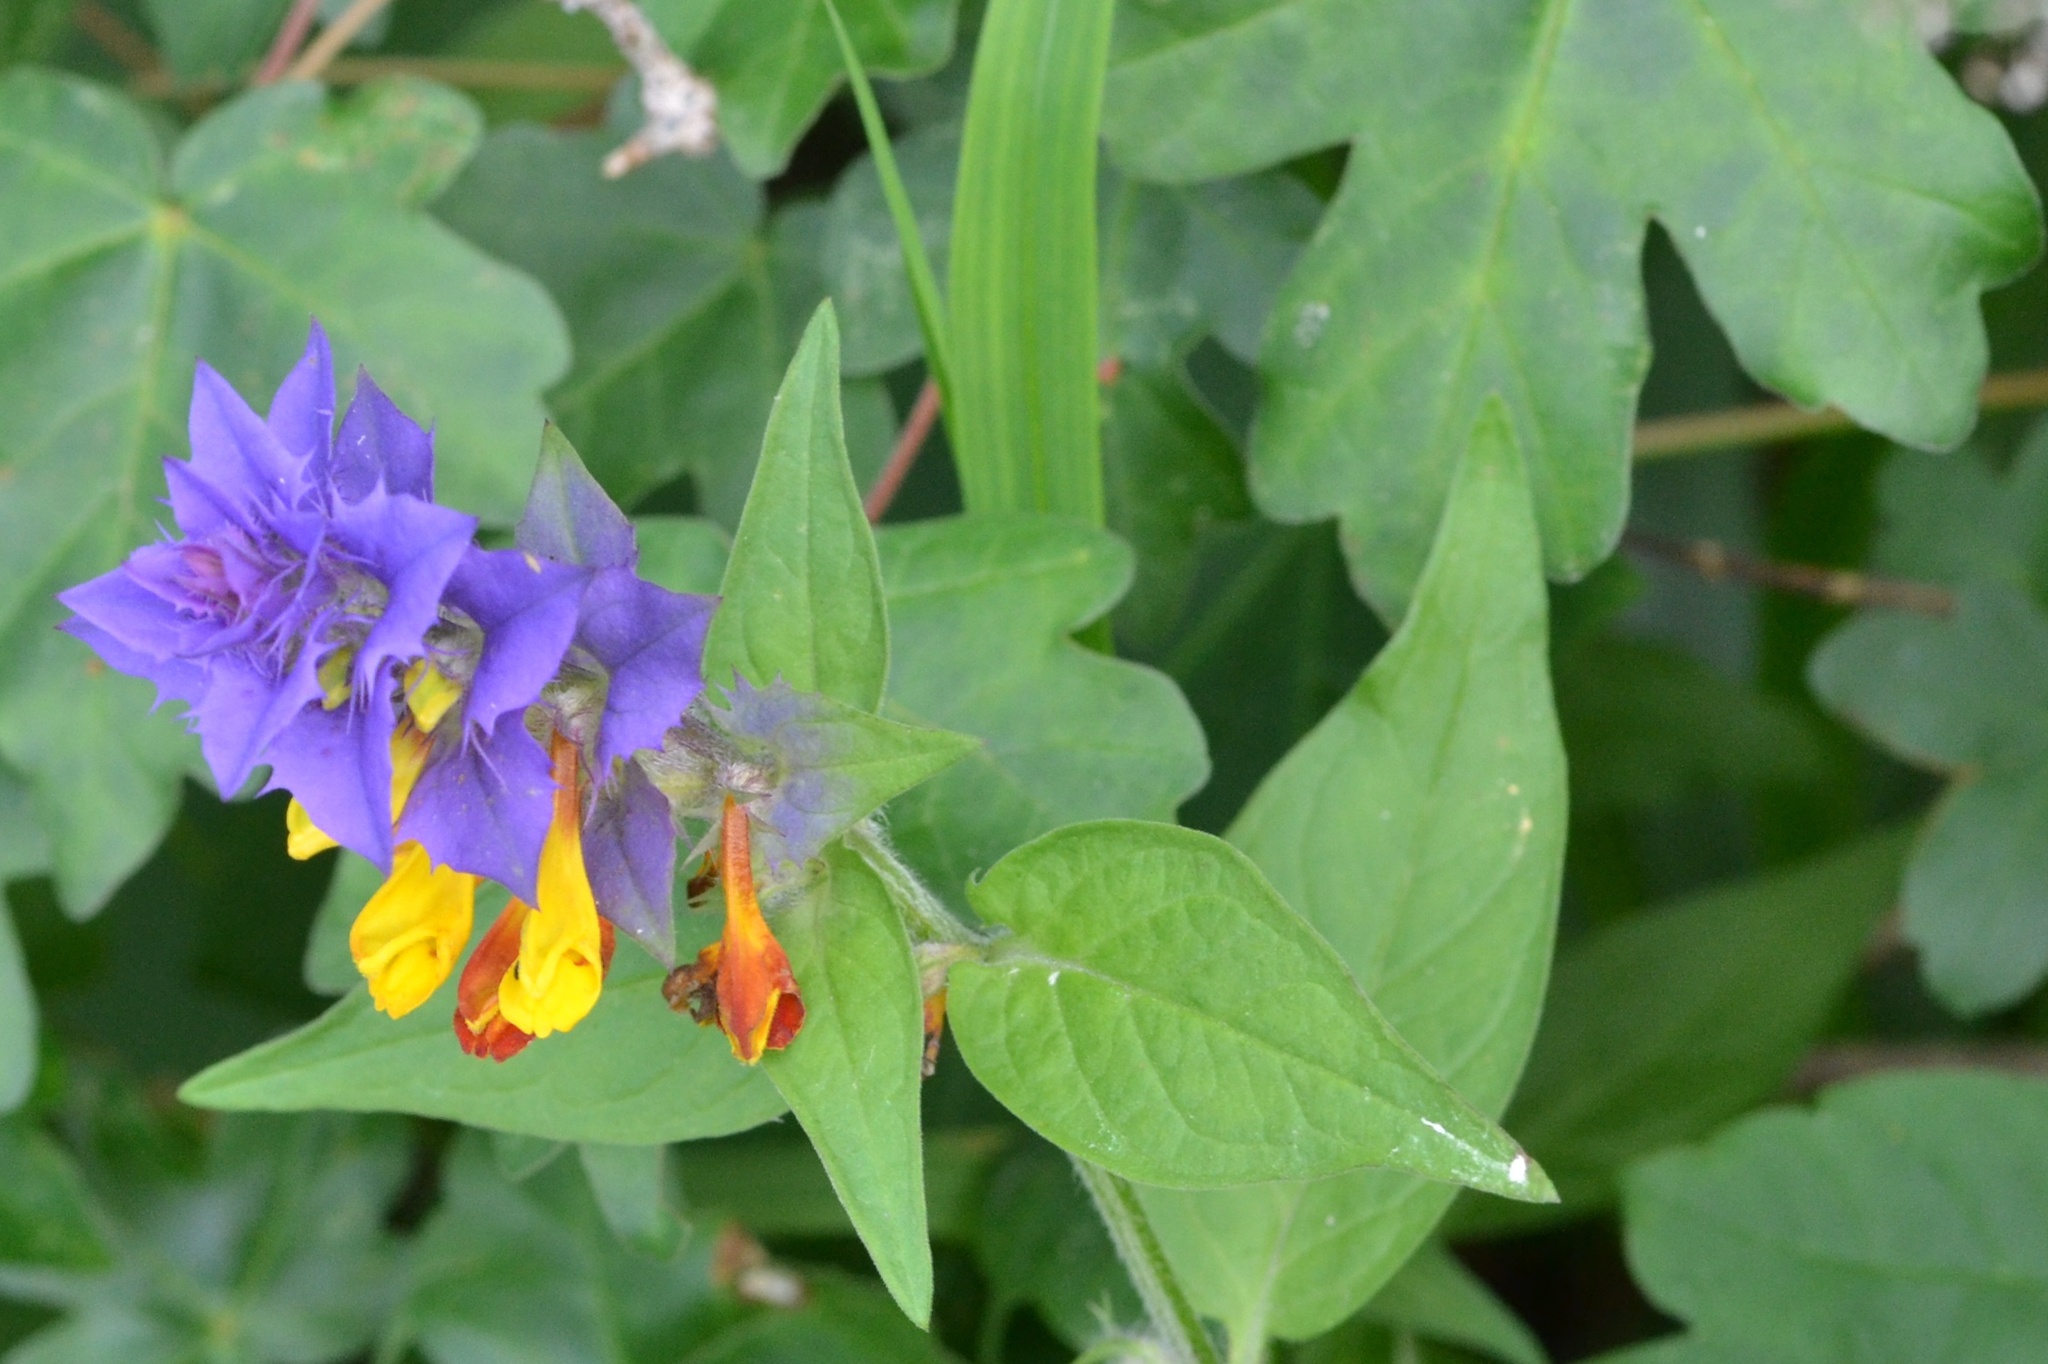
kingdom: Plantae
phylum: Tracheophyta
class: Magnoliopsida
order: Lamiales
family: Orobanchaceae
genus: Melampyrum
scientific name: Melampyrum nemorosum
